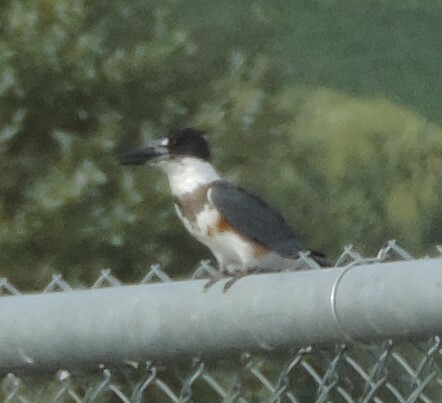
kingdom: Animalia
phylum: Chordata
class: Aves
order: Coraciiformes
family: Alcedinidae
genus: Megaceryle
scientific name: Megaceryle alcyon
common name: Belted kingfisher
